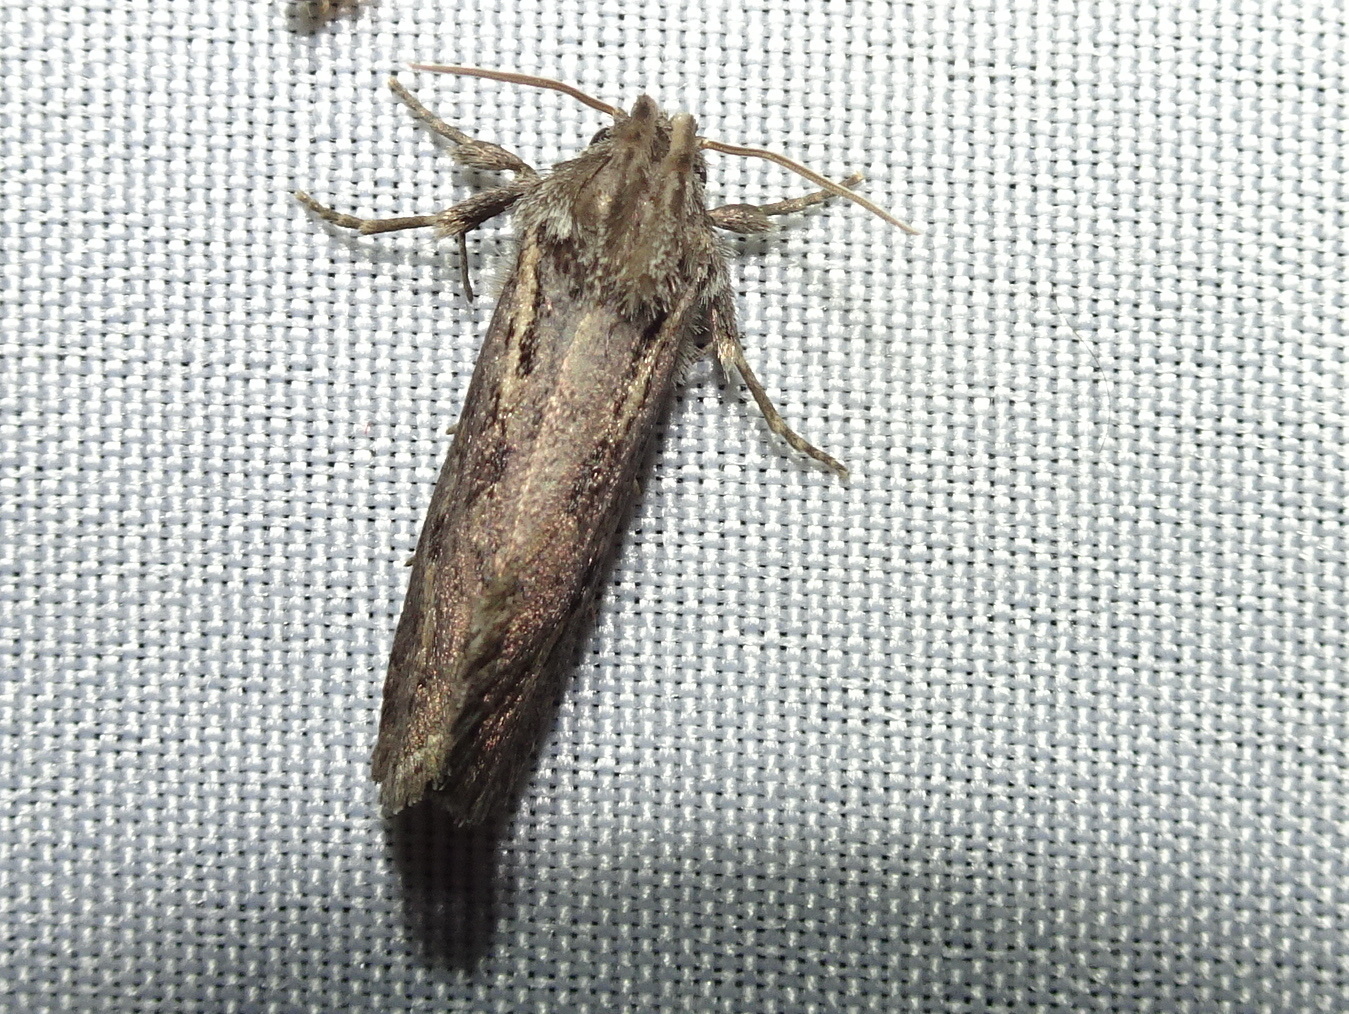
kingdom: Animalia
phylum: Arthropoda
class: Insecta
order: Lepidoptera
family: Tineidae
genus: Acrolophus
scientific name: Acrolophus popeanella
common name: Clemens' grass tubeworm moth
